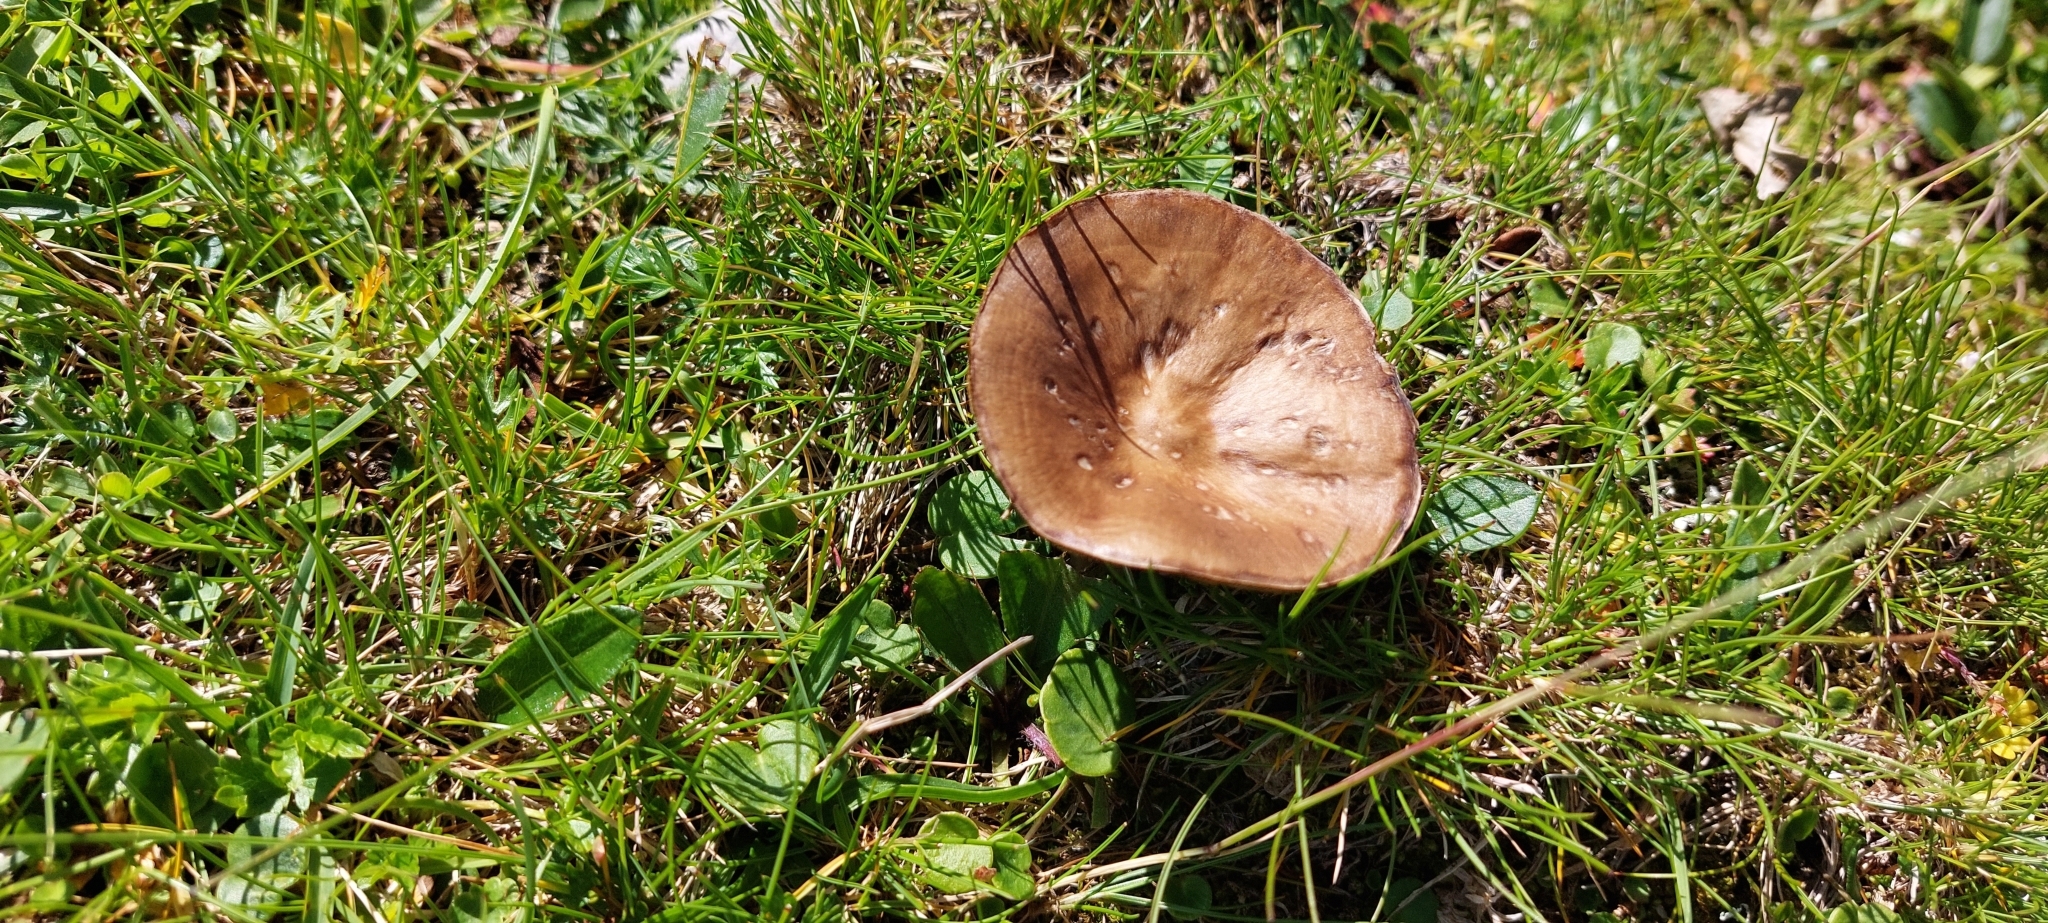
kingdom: Fungi
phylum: Basidiomycota
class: Agaricomycetes
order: Agaricales
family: Tricholomataceae
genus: Melanoleuca
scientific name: Melanoleuca melaleuca
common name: Bald cavalier
